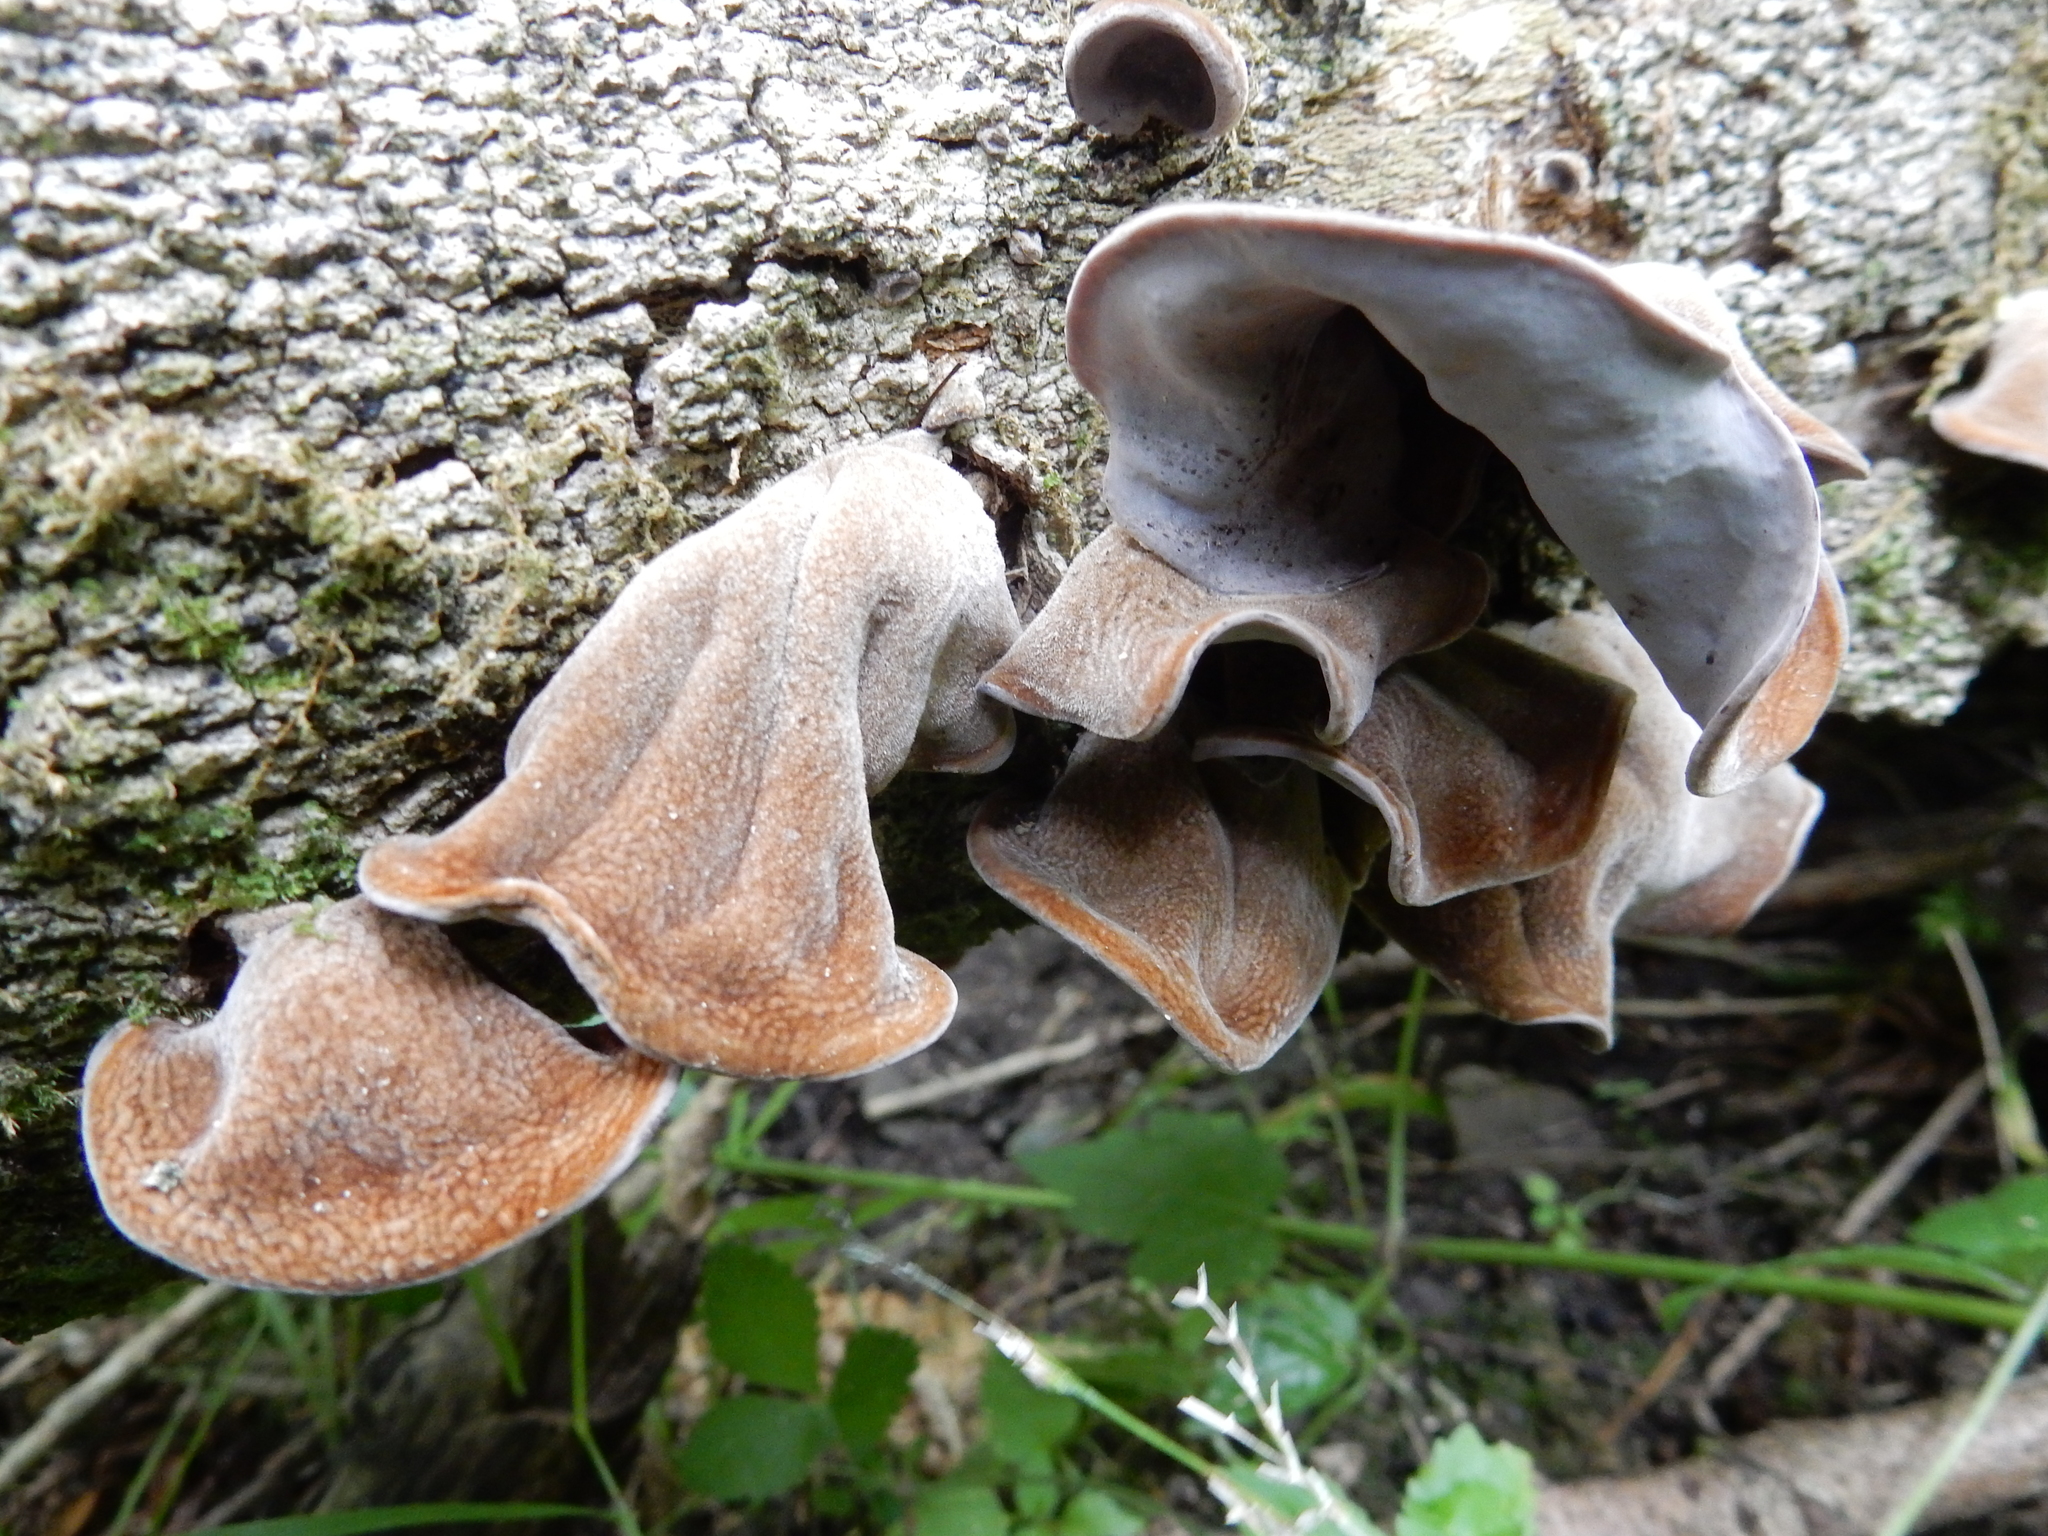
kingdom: Fungi
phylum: Basidiomycota
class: Agaricomycetes
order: Auriculariales
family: Auriculariaceae
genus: Auricularia
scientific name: Auricularia cornea
